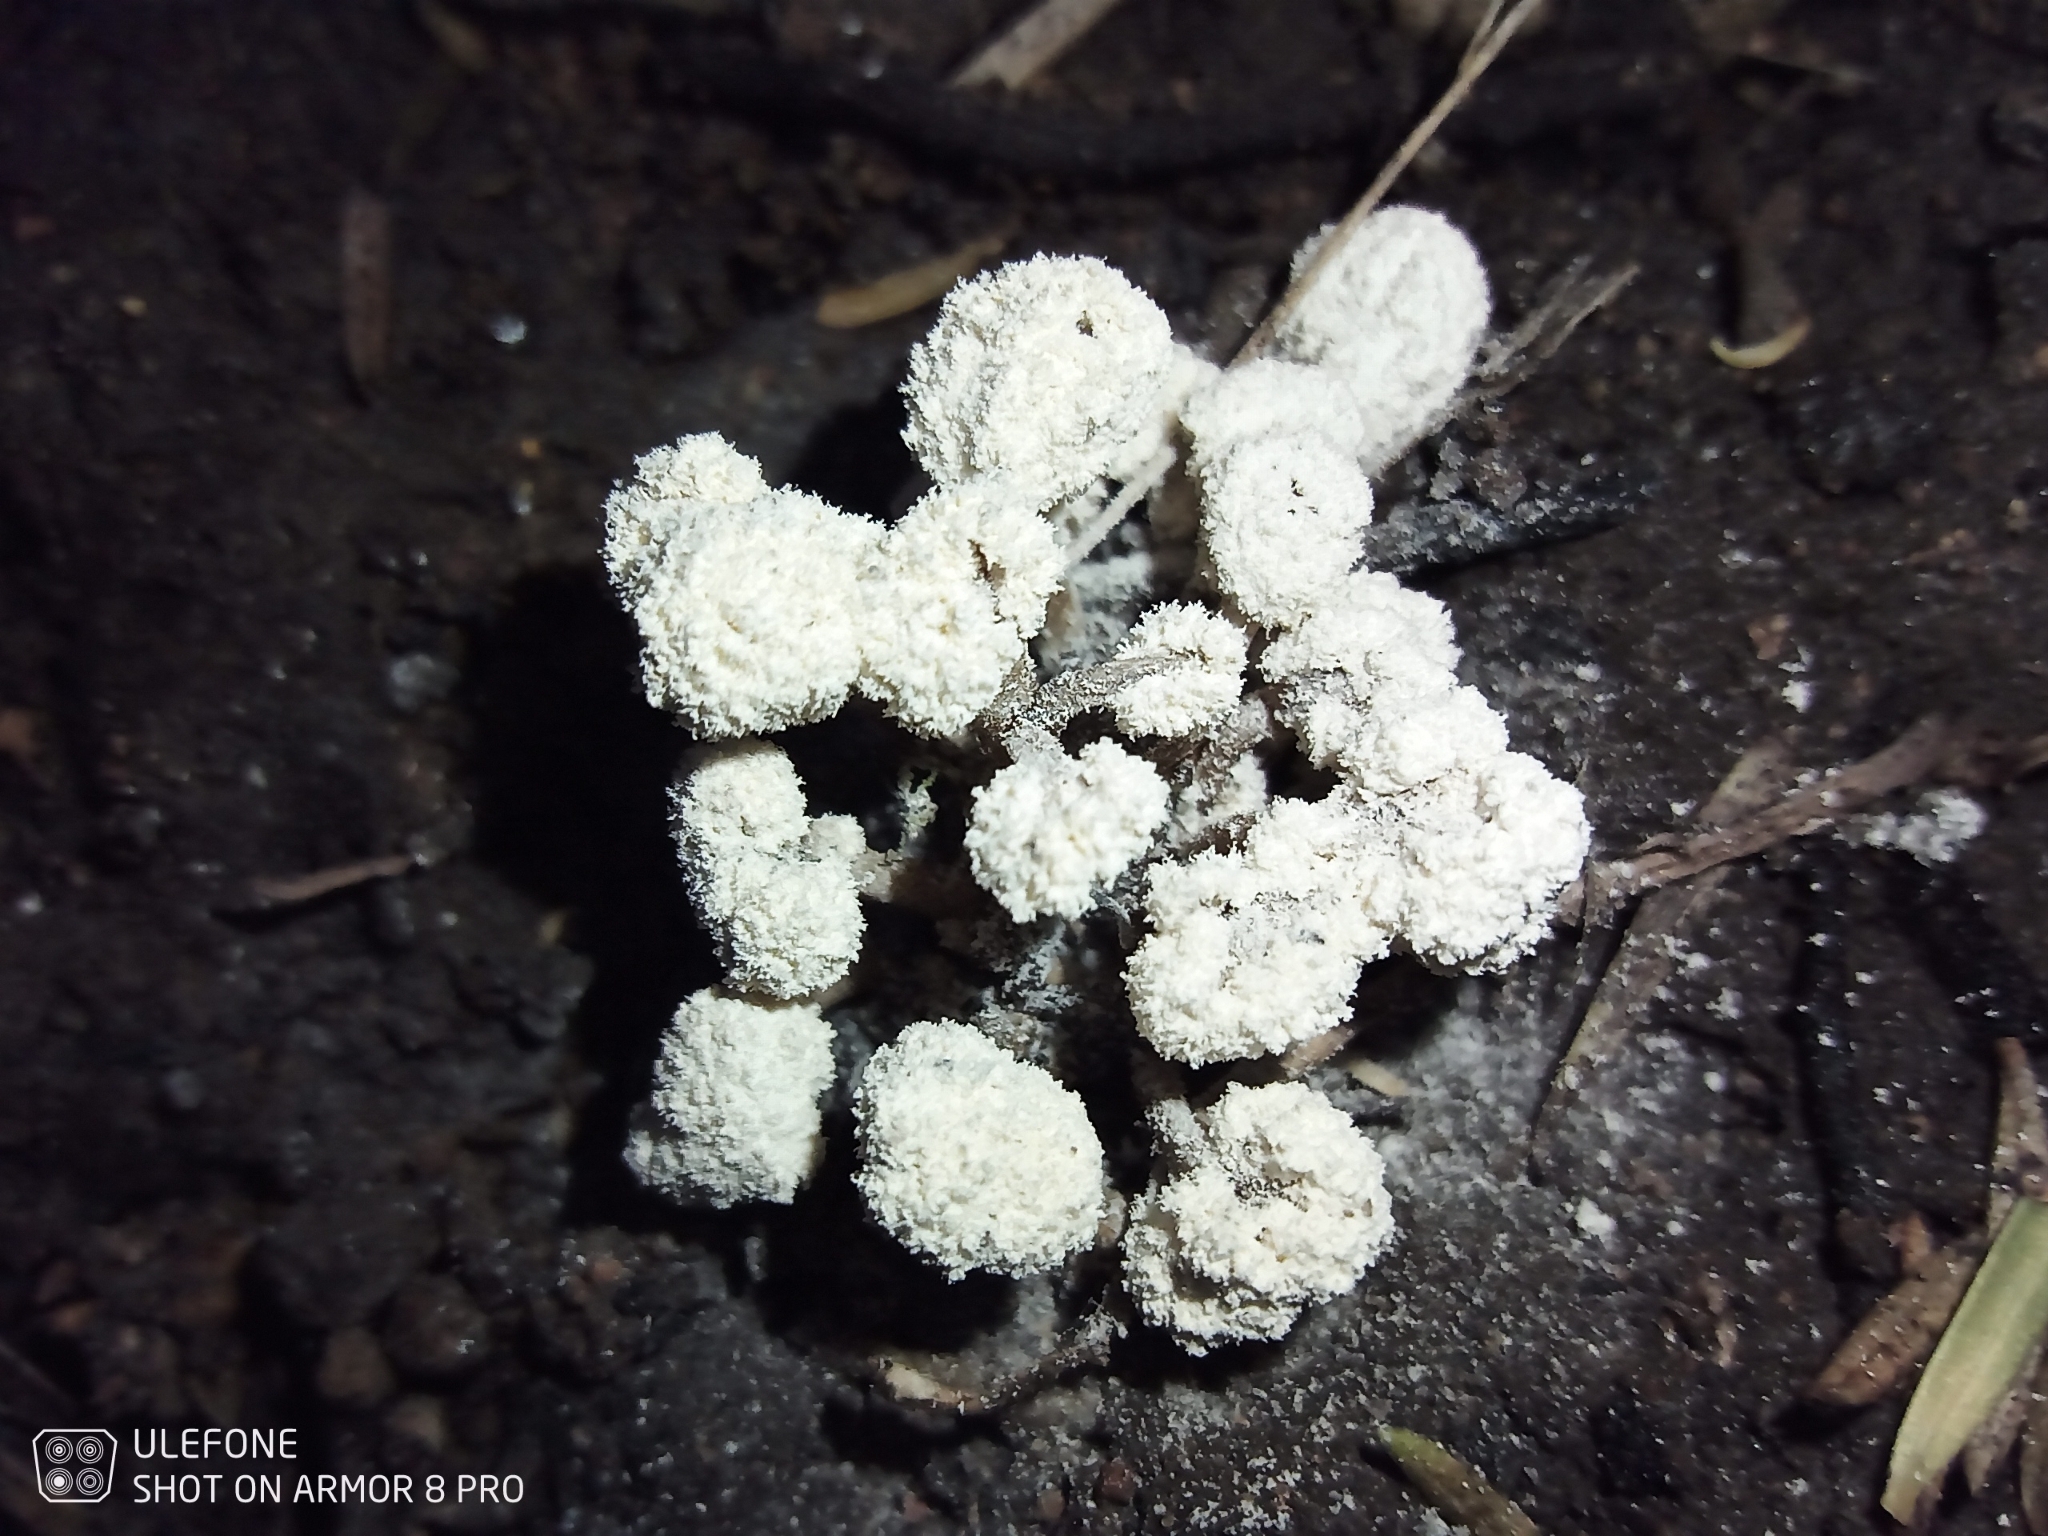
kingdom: Fungi
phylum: Ascomycota
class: Sordariomycetes
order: Hypocreales
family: Cordycipitaceae
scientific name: Cordycipitaceae
